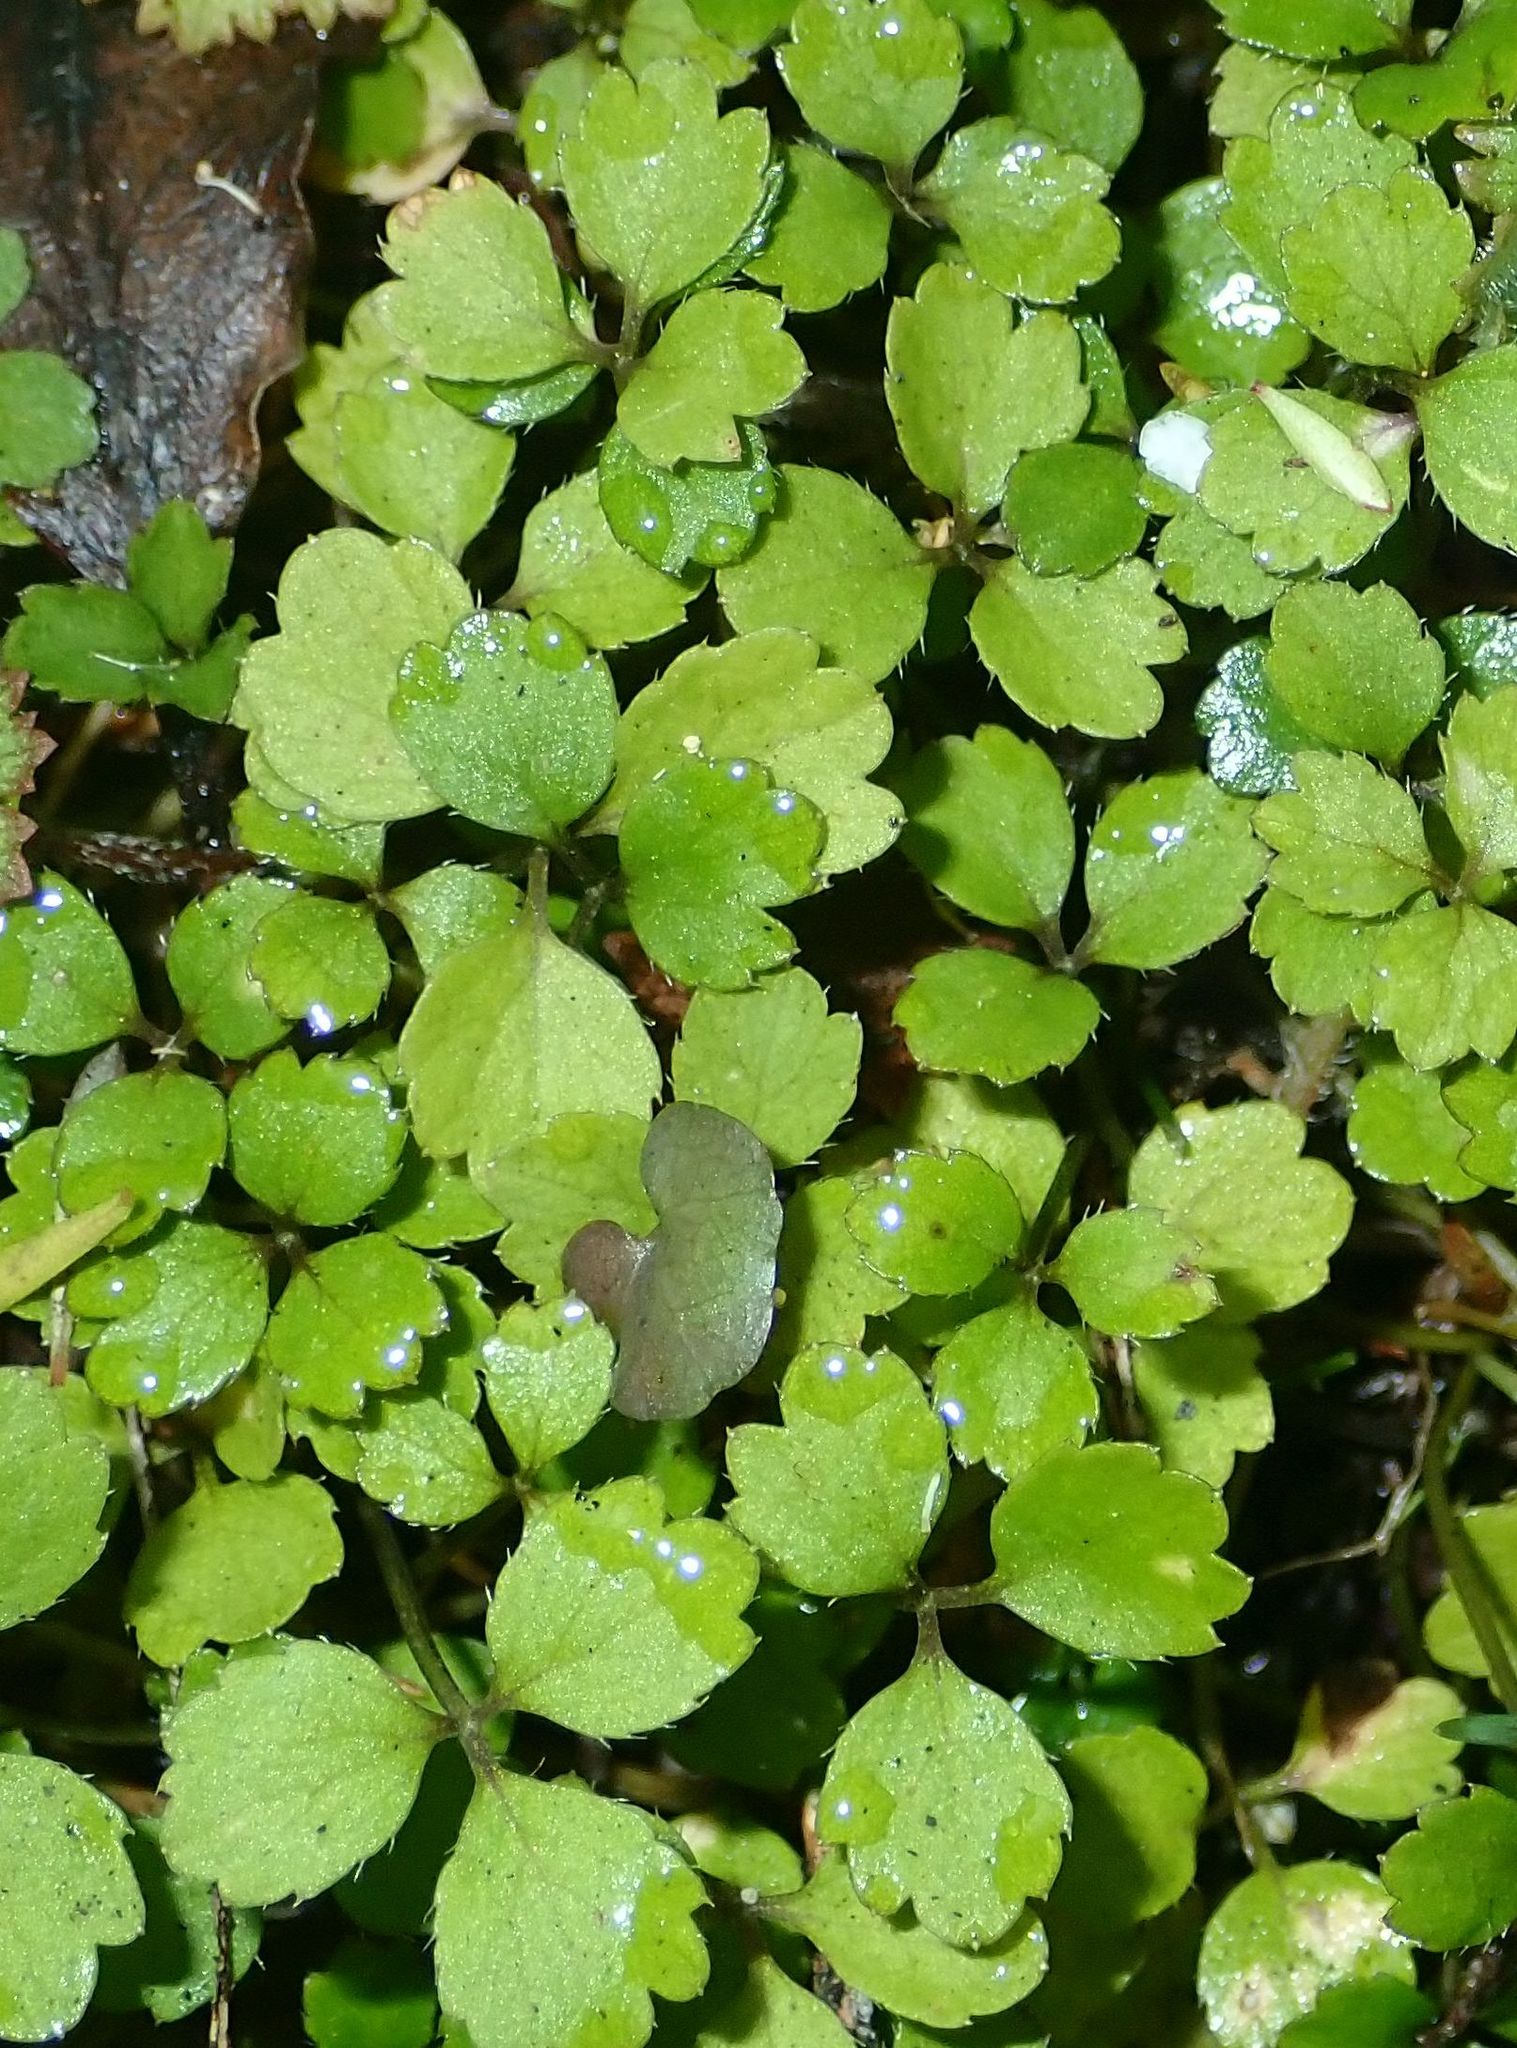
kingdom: Plantae
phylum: Tracheophyta
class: Magnoliopsida
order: Apiales
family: Apiaceae
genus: Azorella
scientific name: Azorella hookeri
